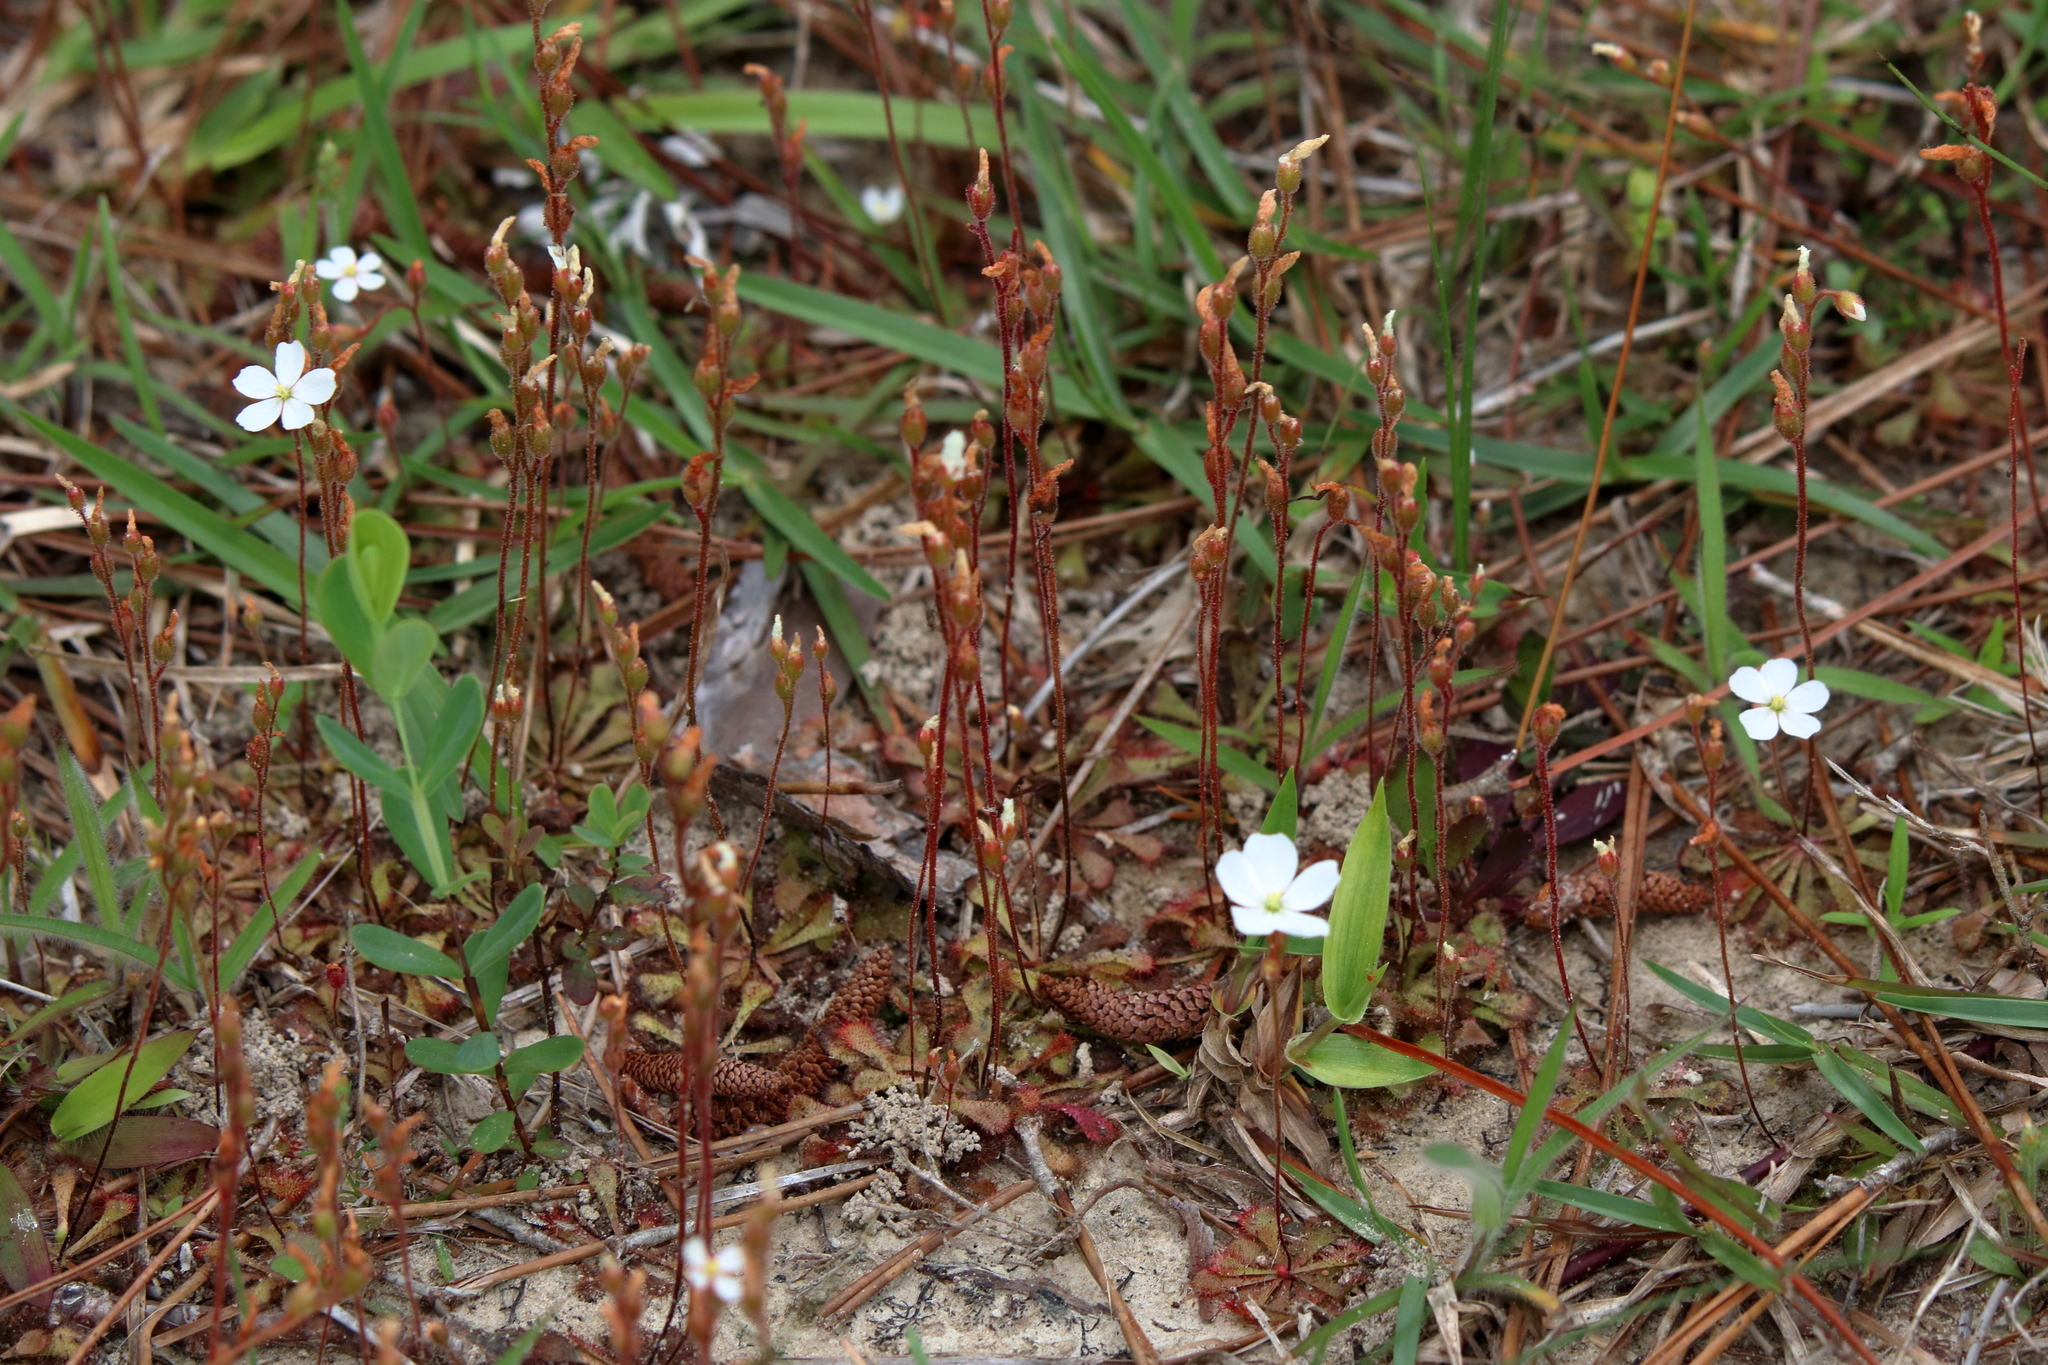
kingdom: Plantae
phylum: Tracheophyta
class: Magnoliopsida
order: Caryophyllales
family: Droseraceae
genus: Drosera
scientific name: Drosera brevifolia
